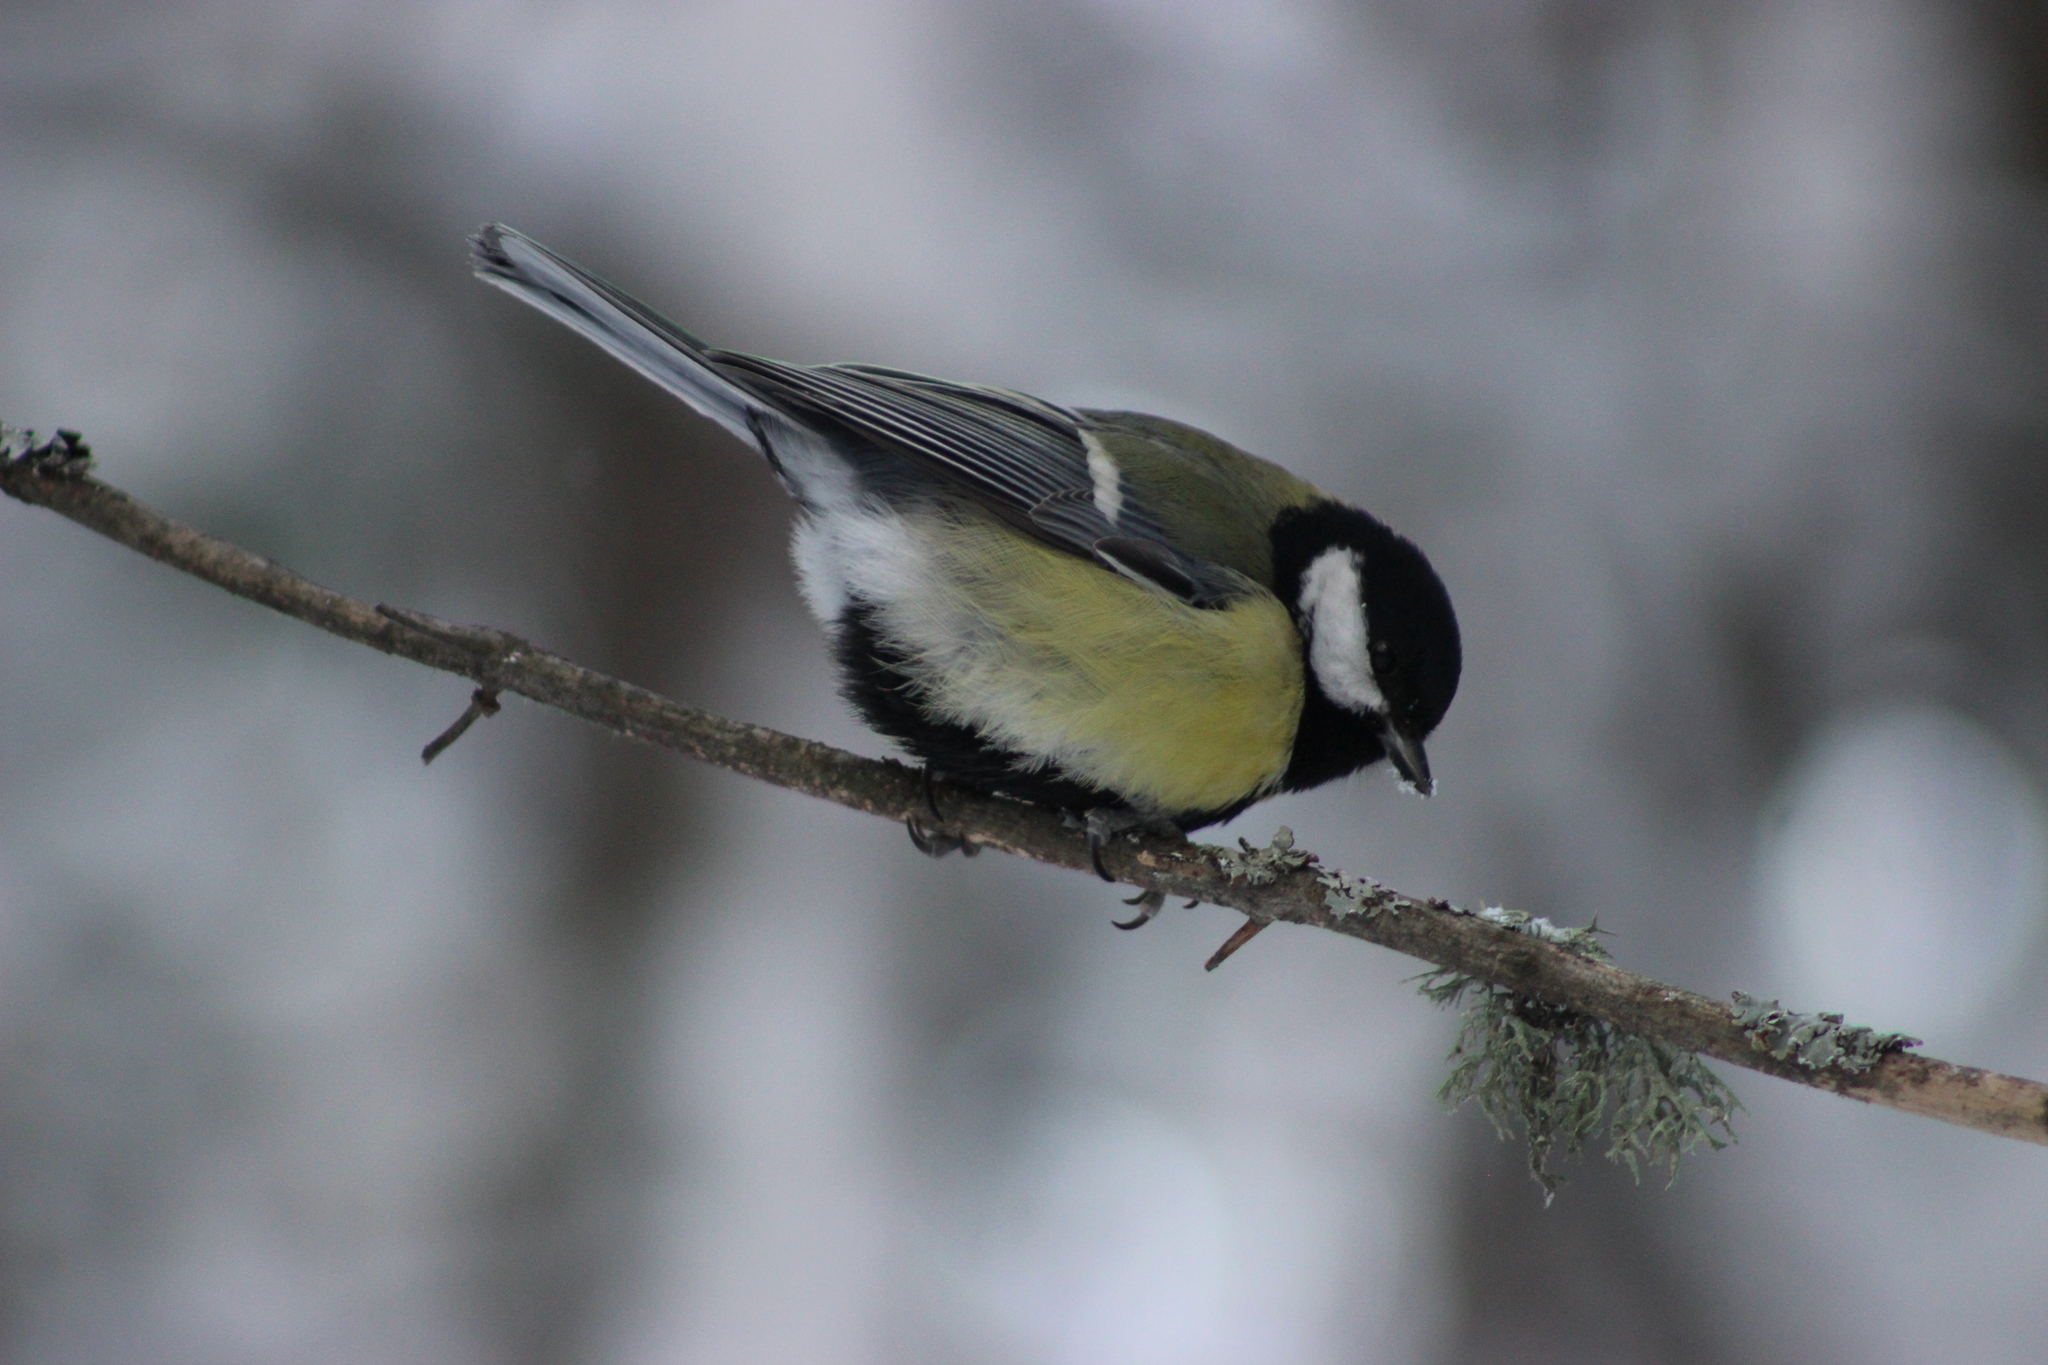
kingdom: Animalia
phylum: Chordata
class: Aves
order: Passeriformes
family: Paridae
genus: Parus
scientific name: Parus major
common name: Great tit
